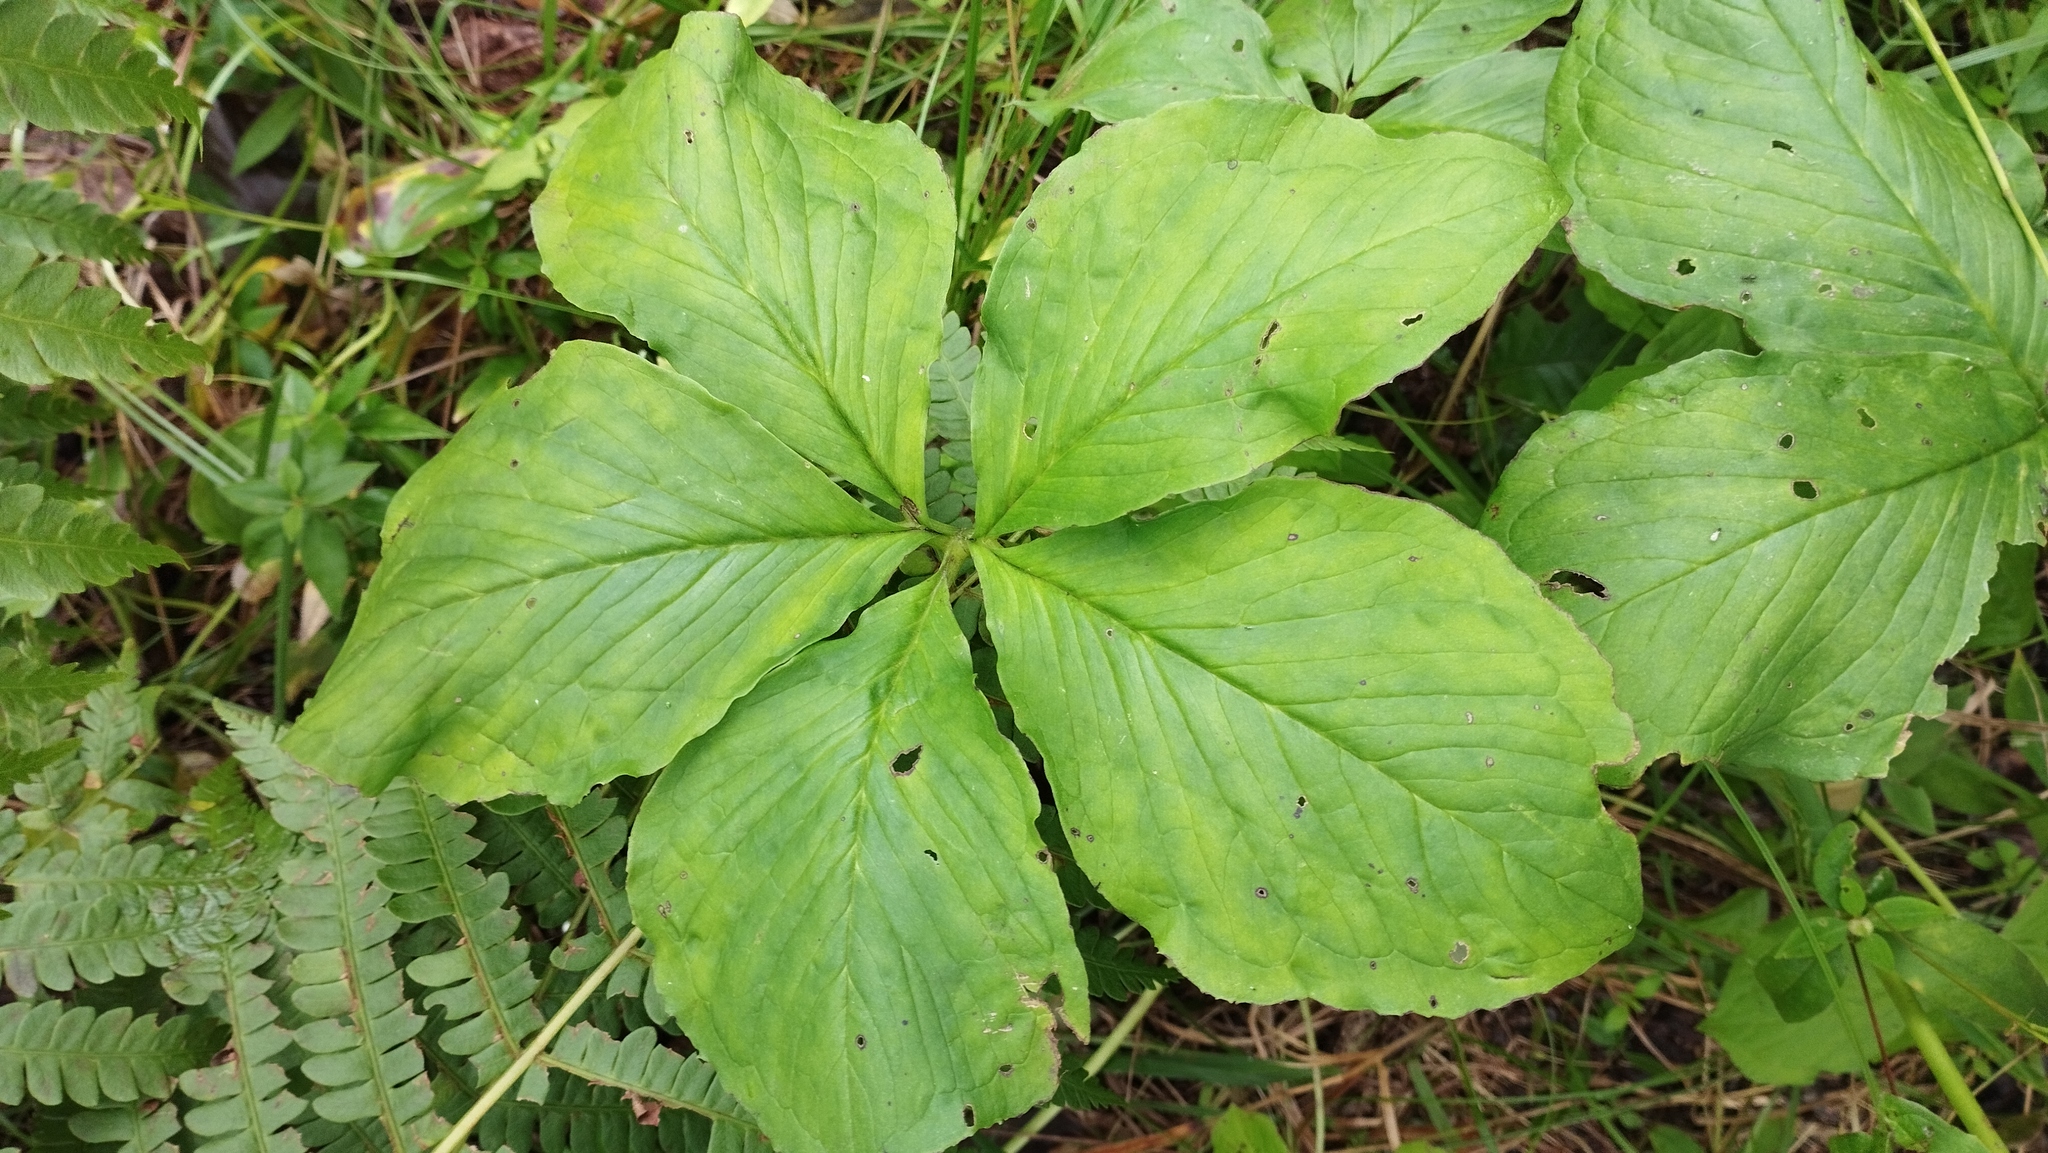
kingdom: Plantae
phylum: Tracheophyta
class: Liliopsida
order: Alismatales
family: Araceae
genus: Arisaema
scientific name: Arisaema amurense
